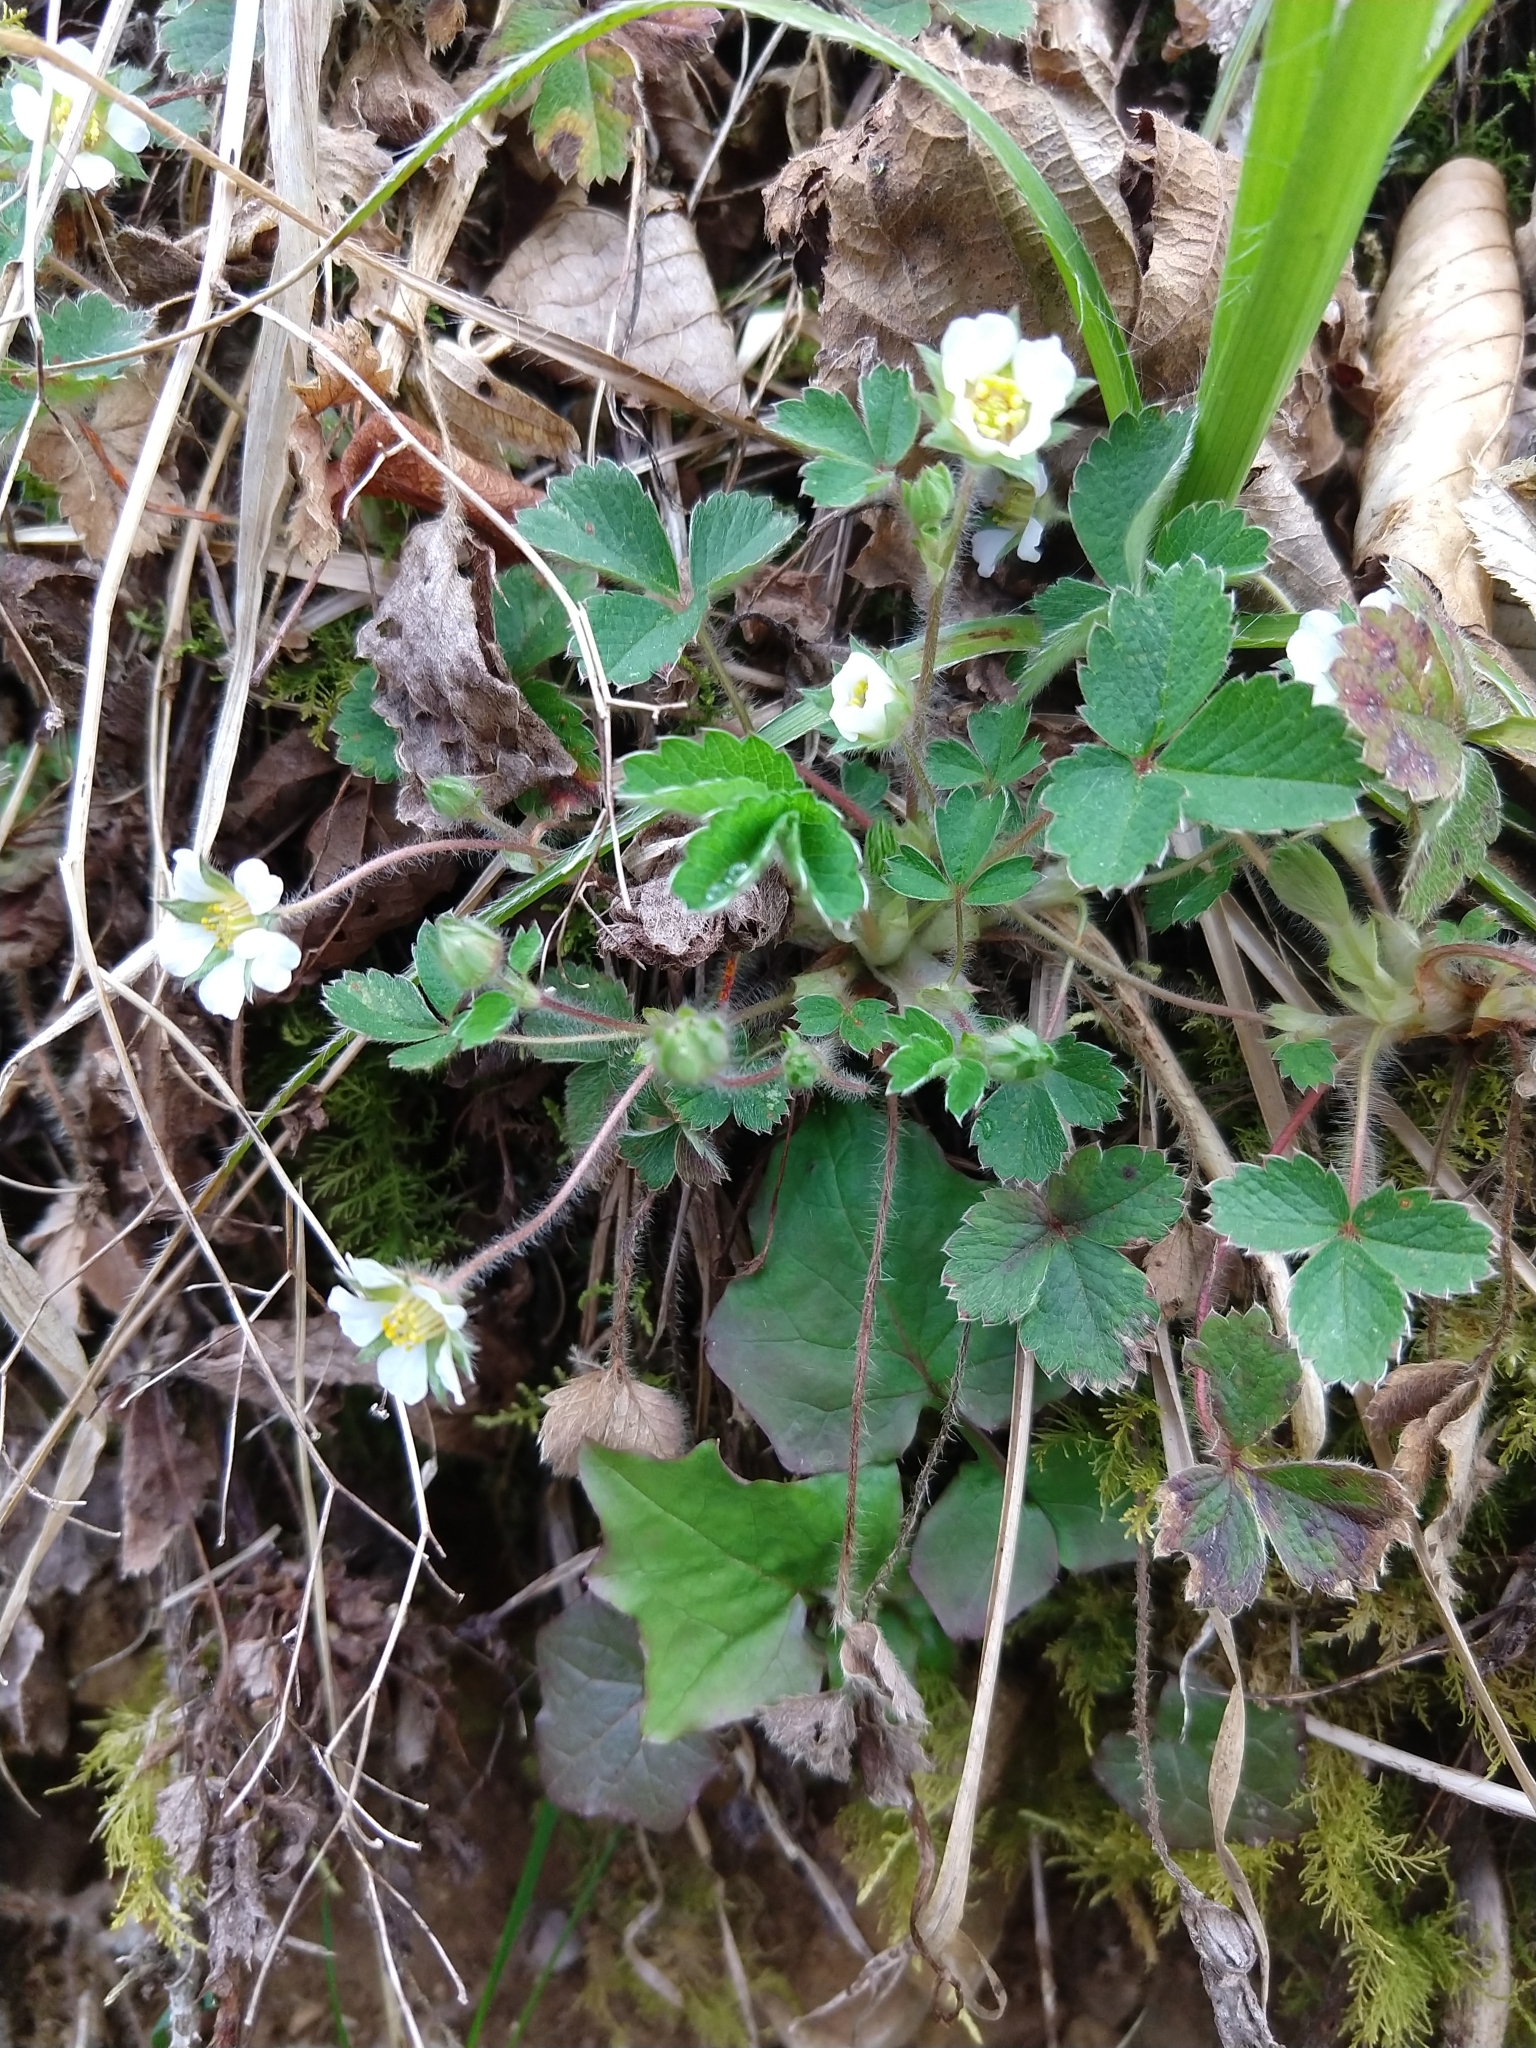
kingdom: Plantae
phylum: Tracheophyta
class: Magnoliopsida
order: Rosales
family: Rosaceae
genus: Potentilla
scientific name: Potentilla sterilis
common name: Barren strawberry
